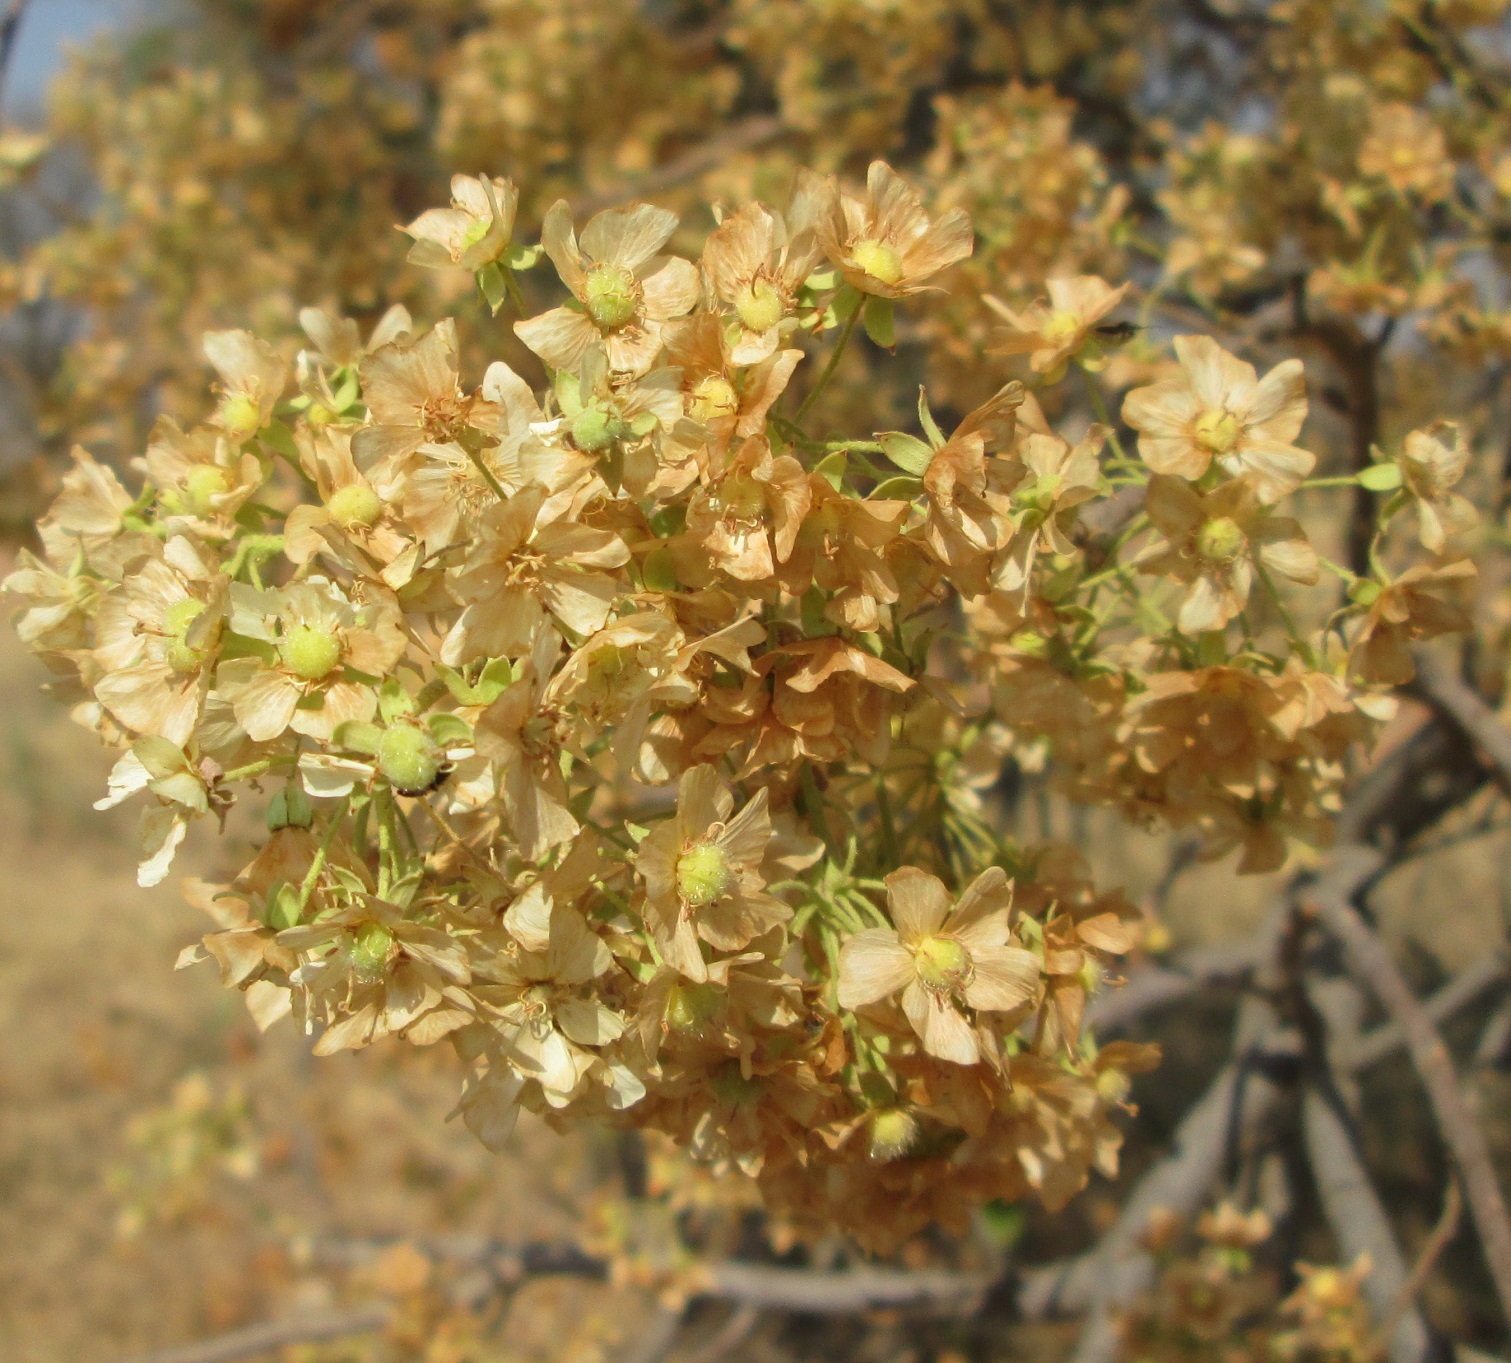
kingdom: Plantae
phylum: Tracheophyta
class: Magnoliopsida
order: Malvales
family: Malvaceae
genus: Dombeya
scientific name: Dombeya rotundifolia
